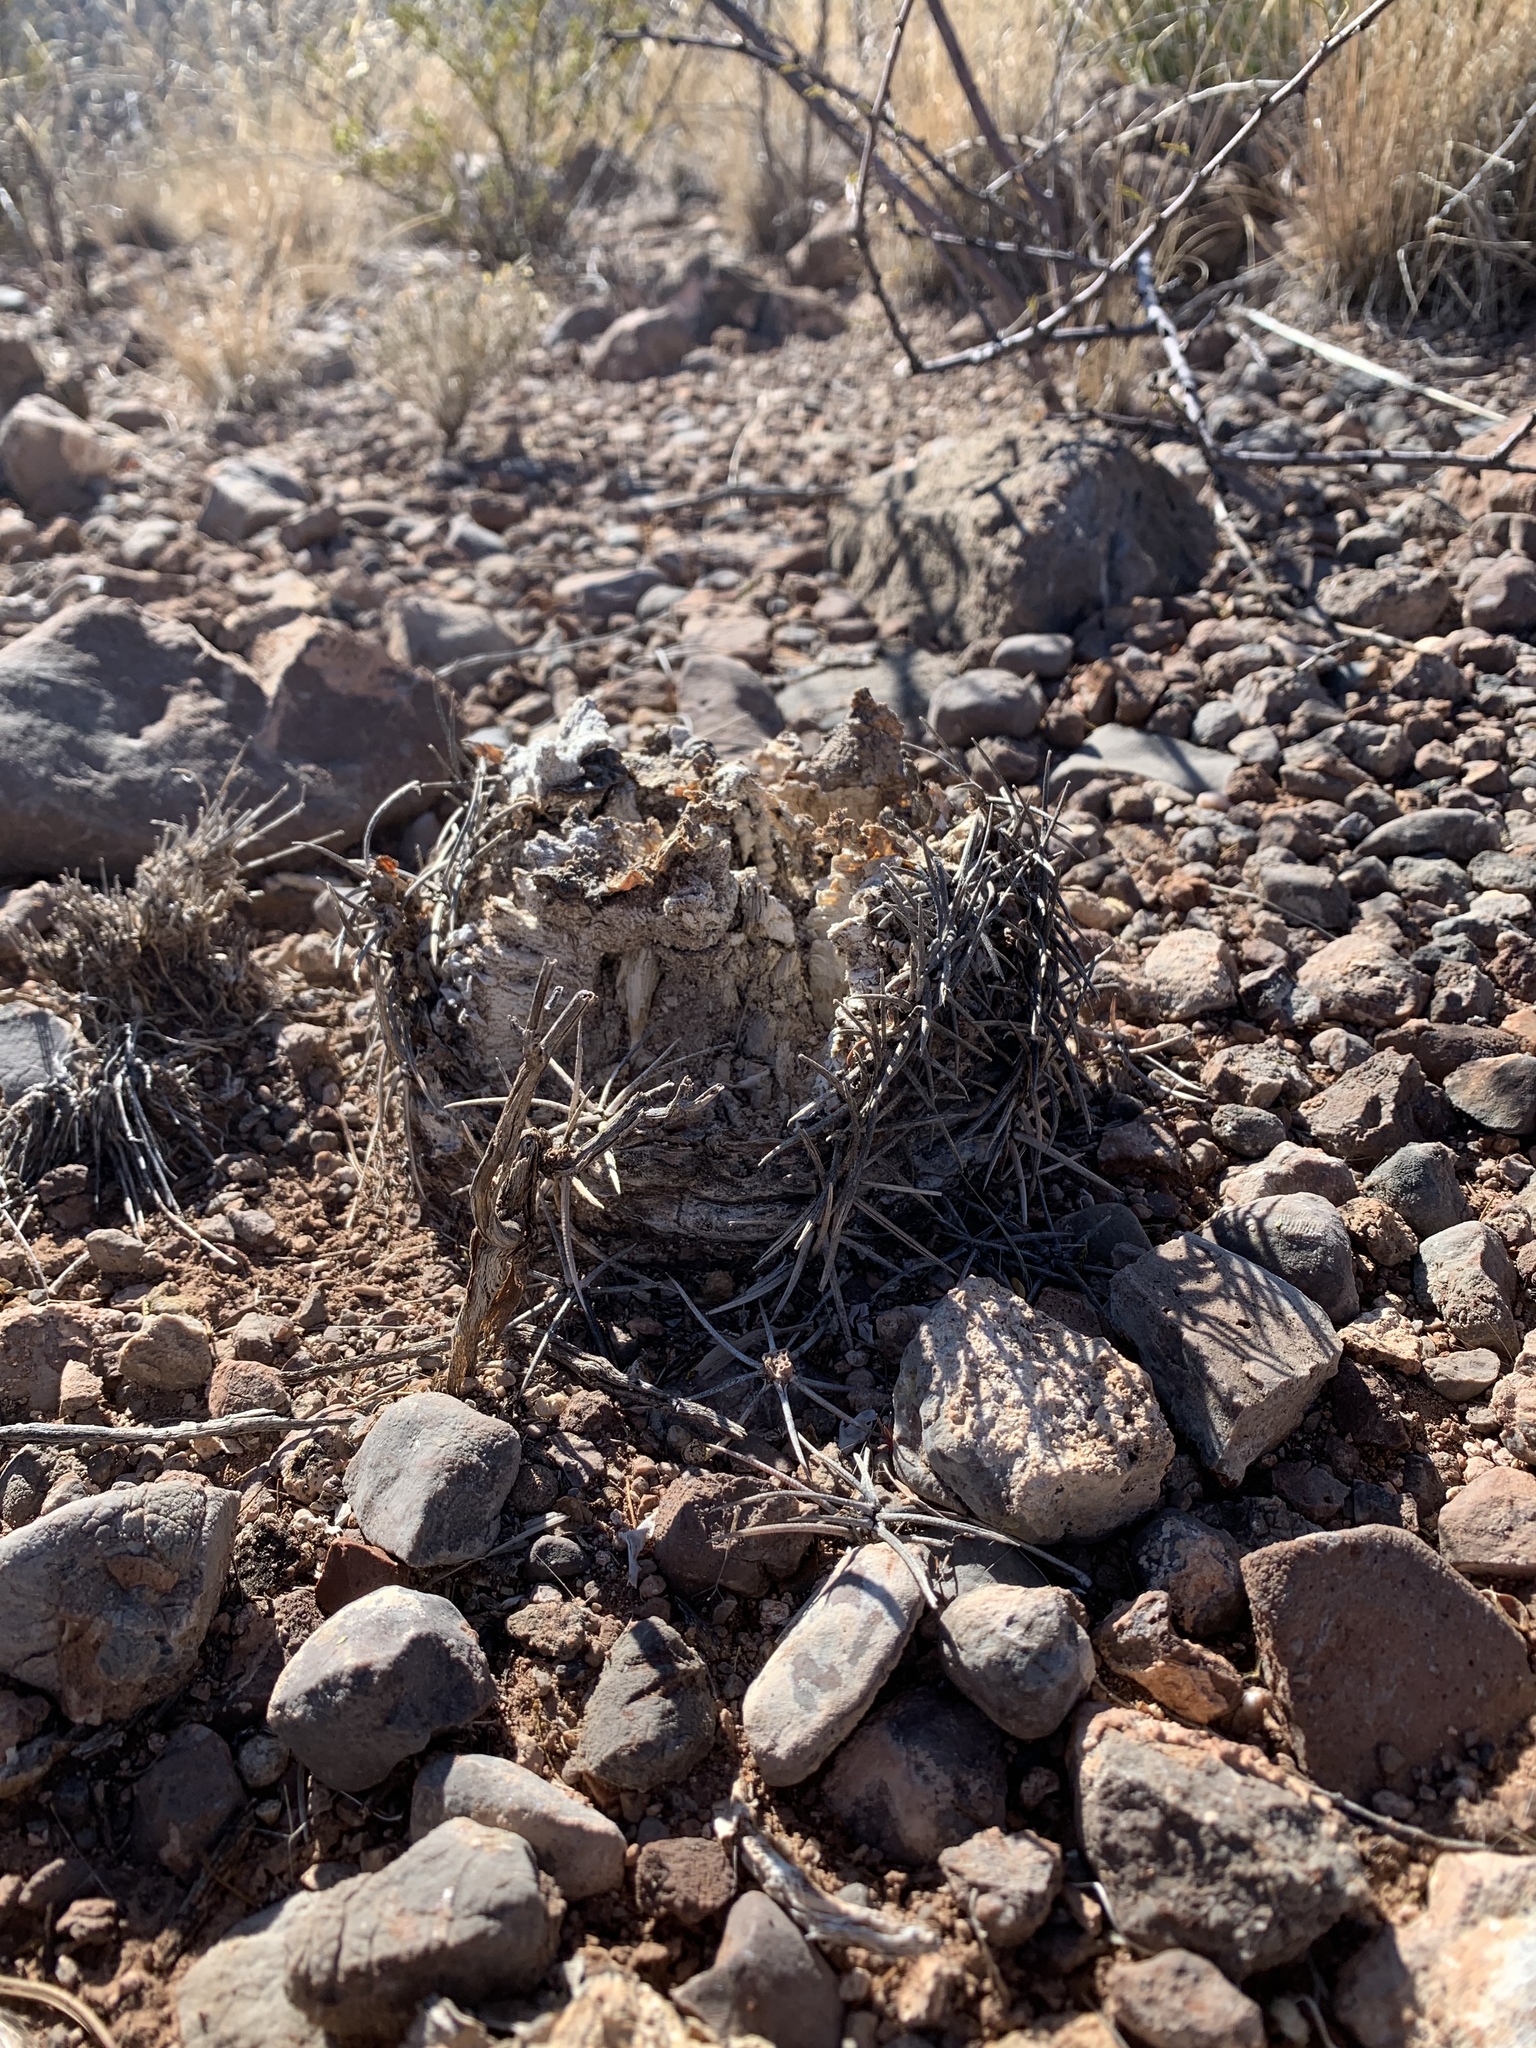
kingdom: Plantae
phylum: Tracheophyta
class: Magnoliopsida
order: Caryophyllales
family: Cactaceae
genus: Echinocactus
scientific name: Echinocactus horizonthalonius
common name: Devilshead
